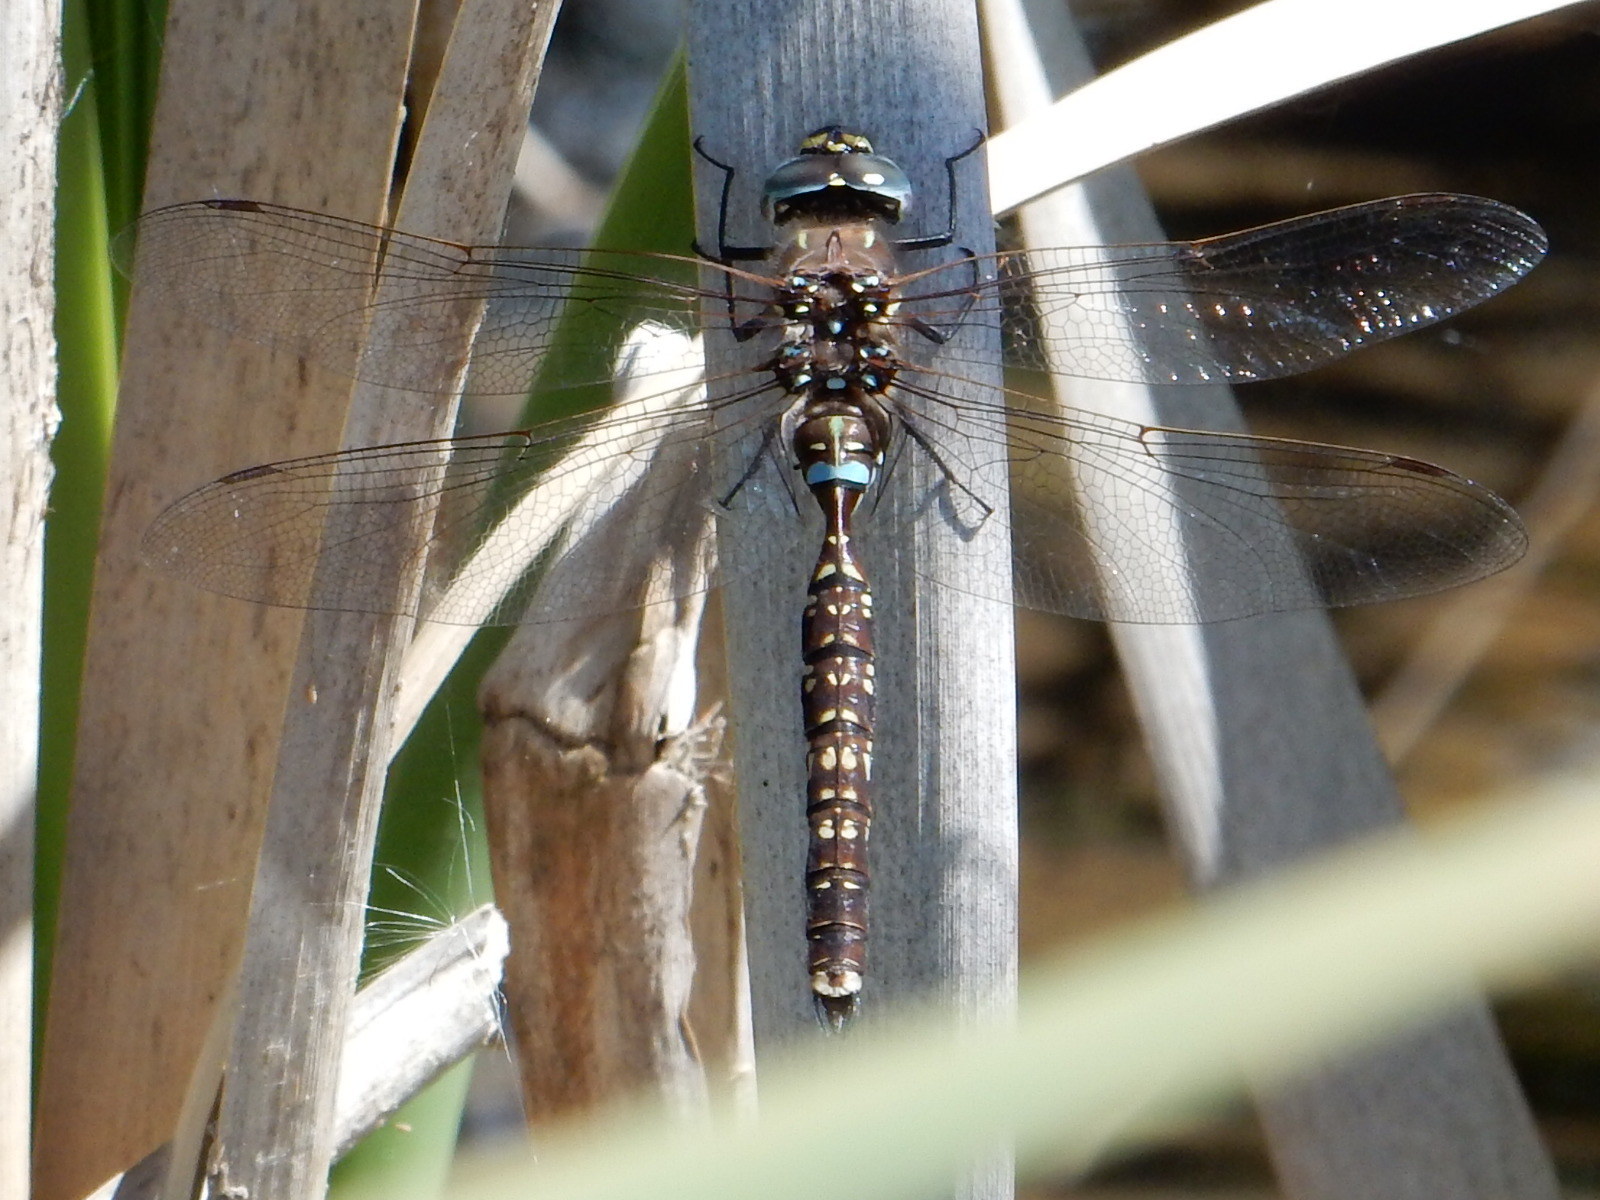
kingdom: Animalia
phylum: Arthropoda
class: Insecta
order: Odonata
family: Aeshnidae
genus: Aeshna
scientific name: Aeshna brevistyla
